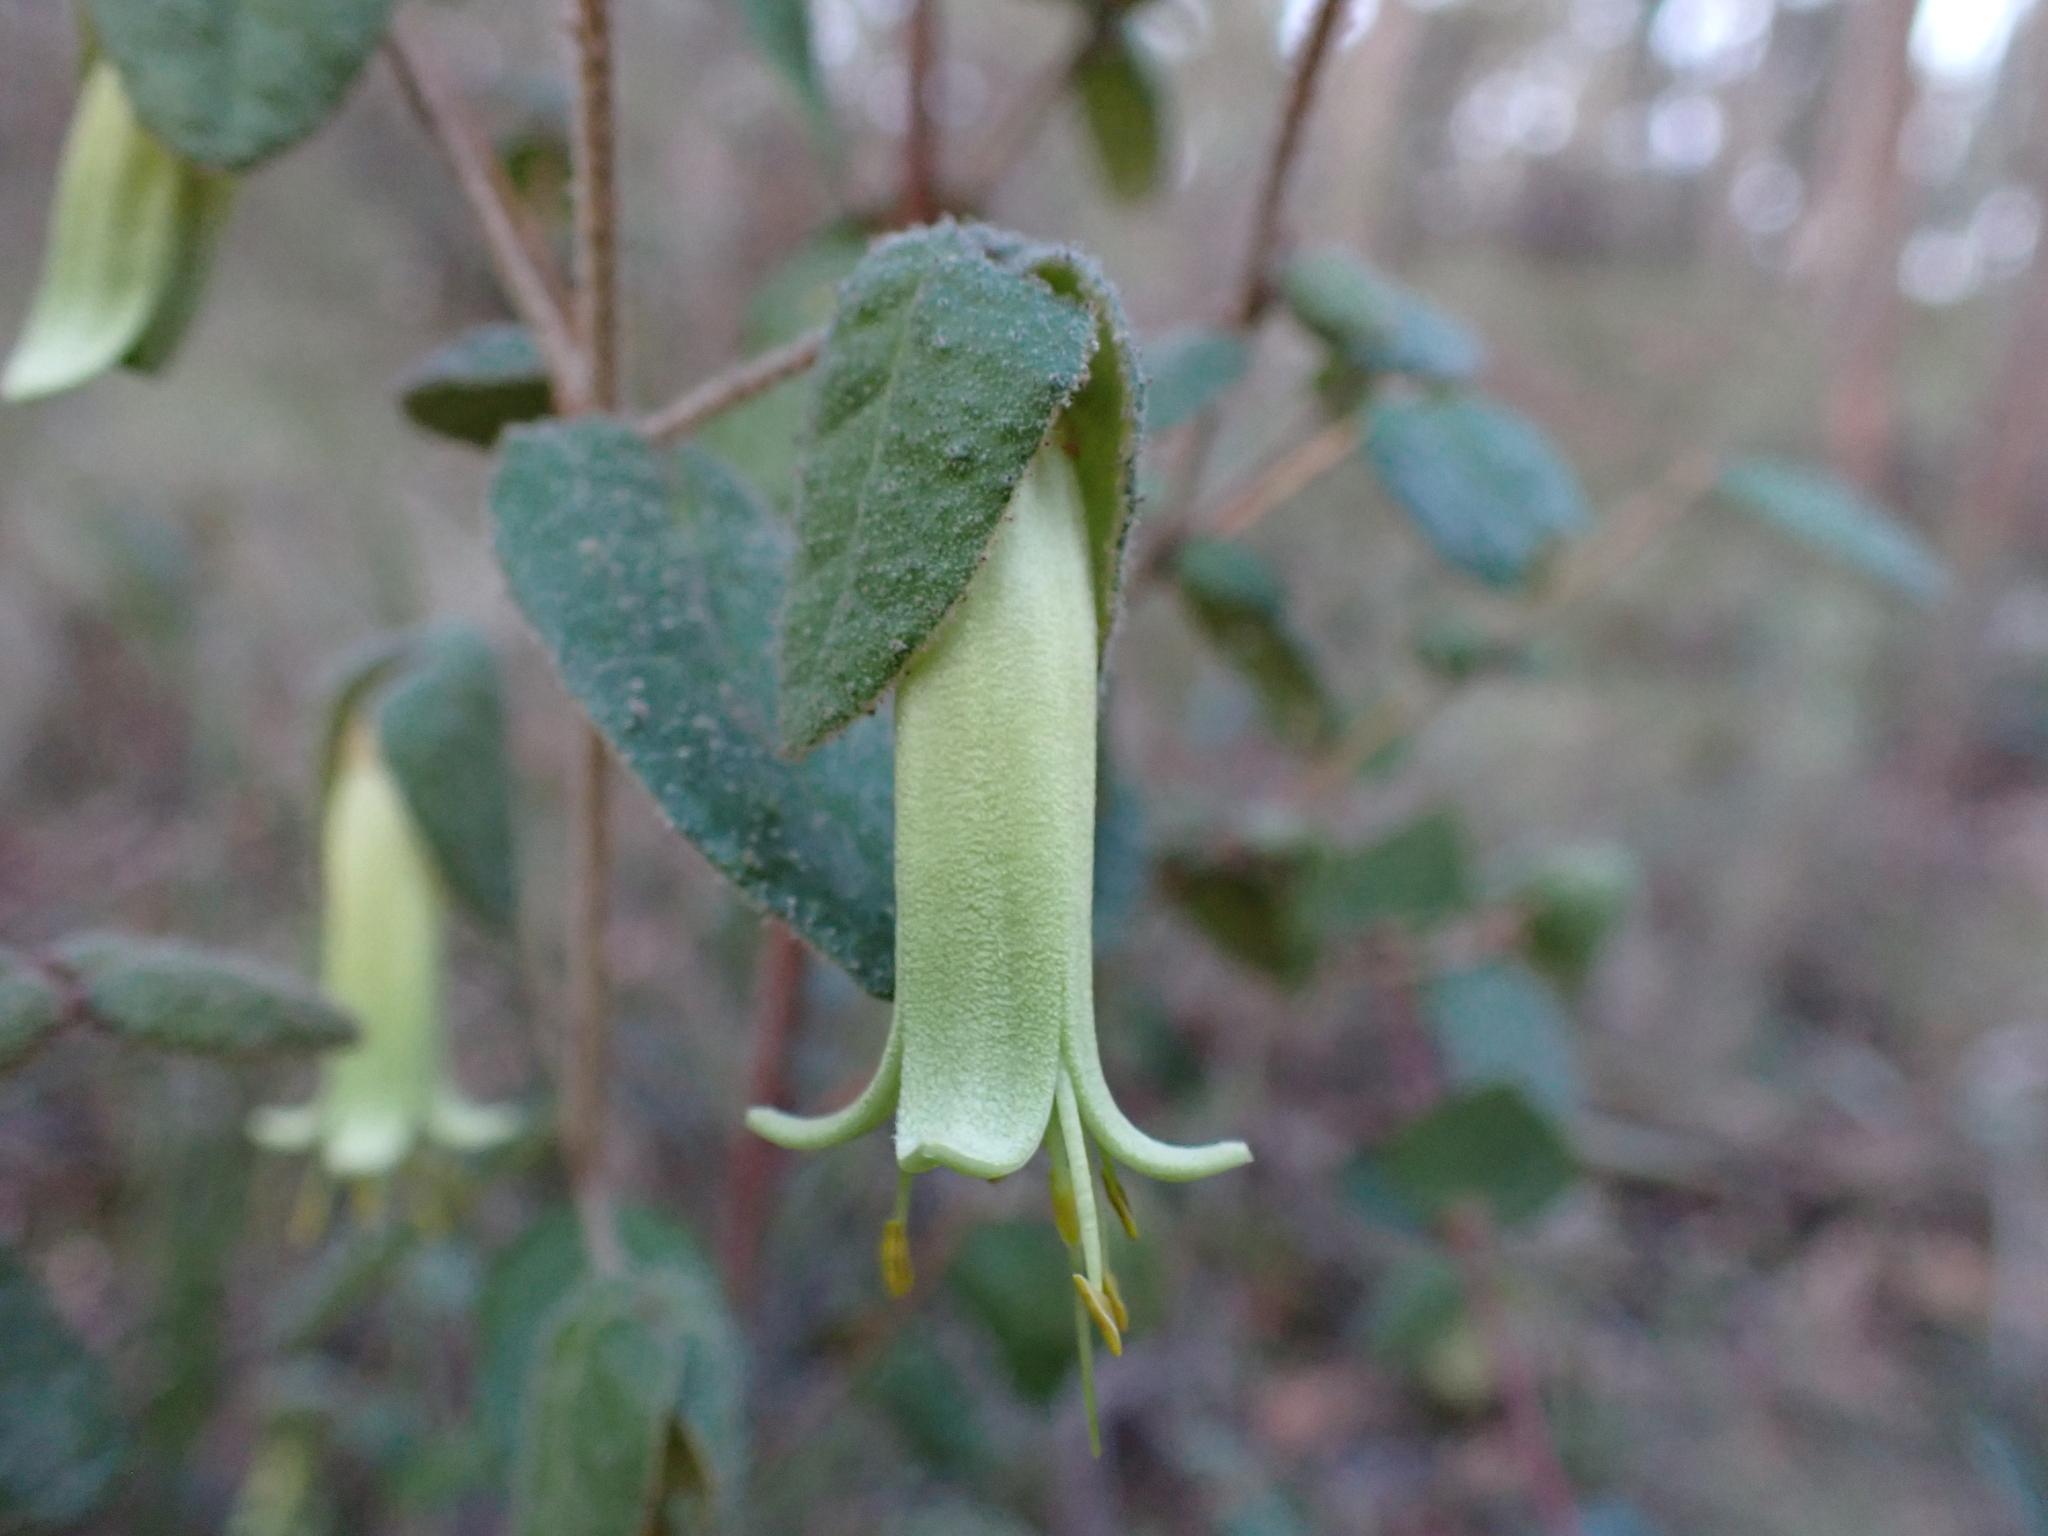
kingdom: Plantae
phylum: Tracheophyta
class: Magnoliopsida
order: Sapindales
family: Rutaceae
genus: Correa
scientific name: Correa reflexa
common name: Common correa
